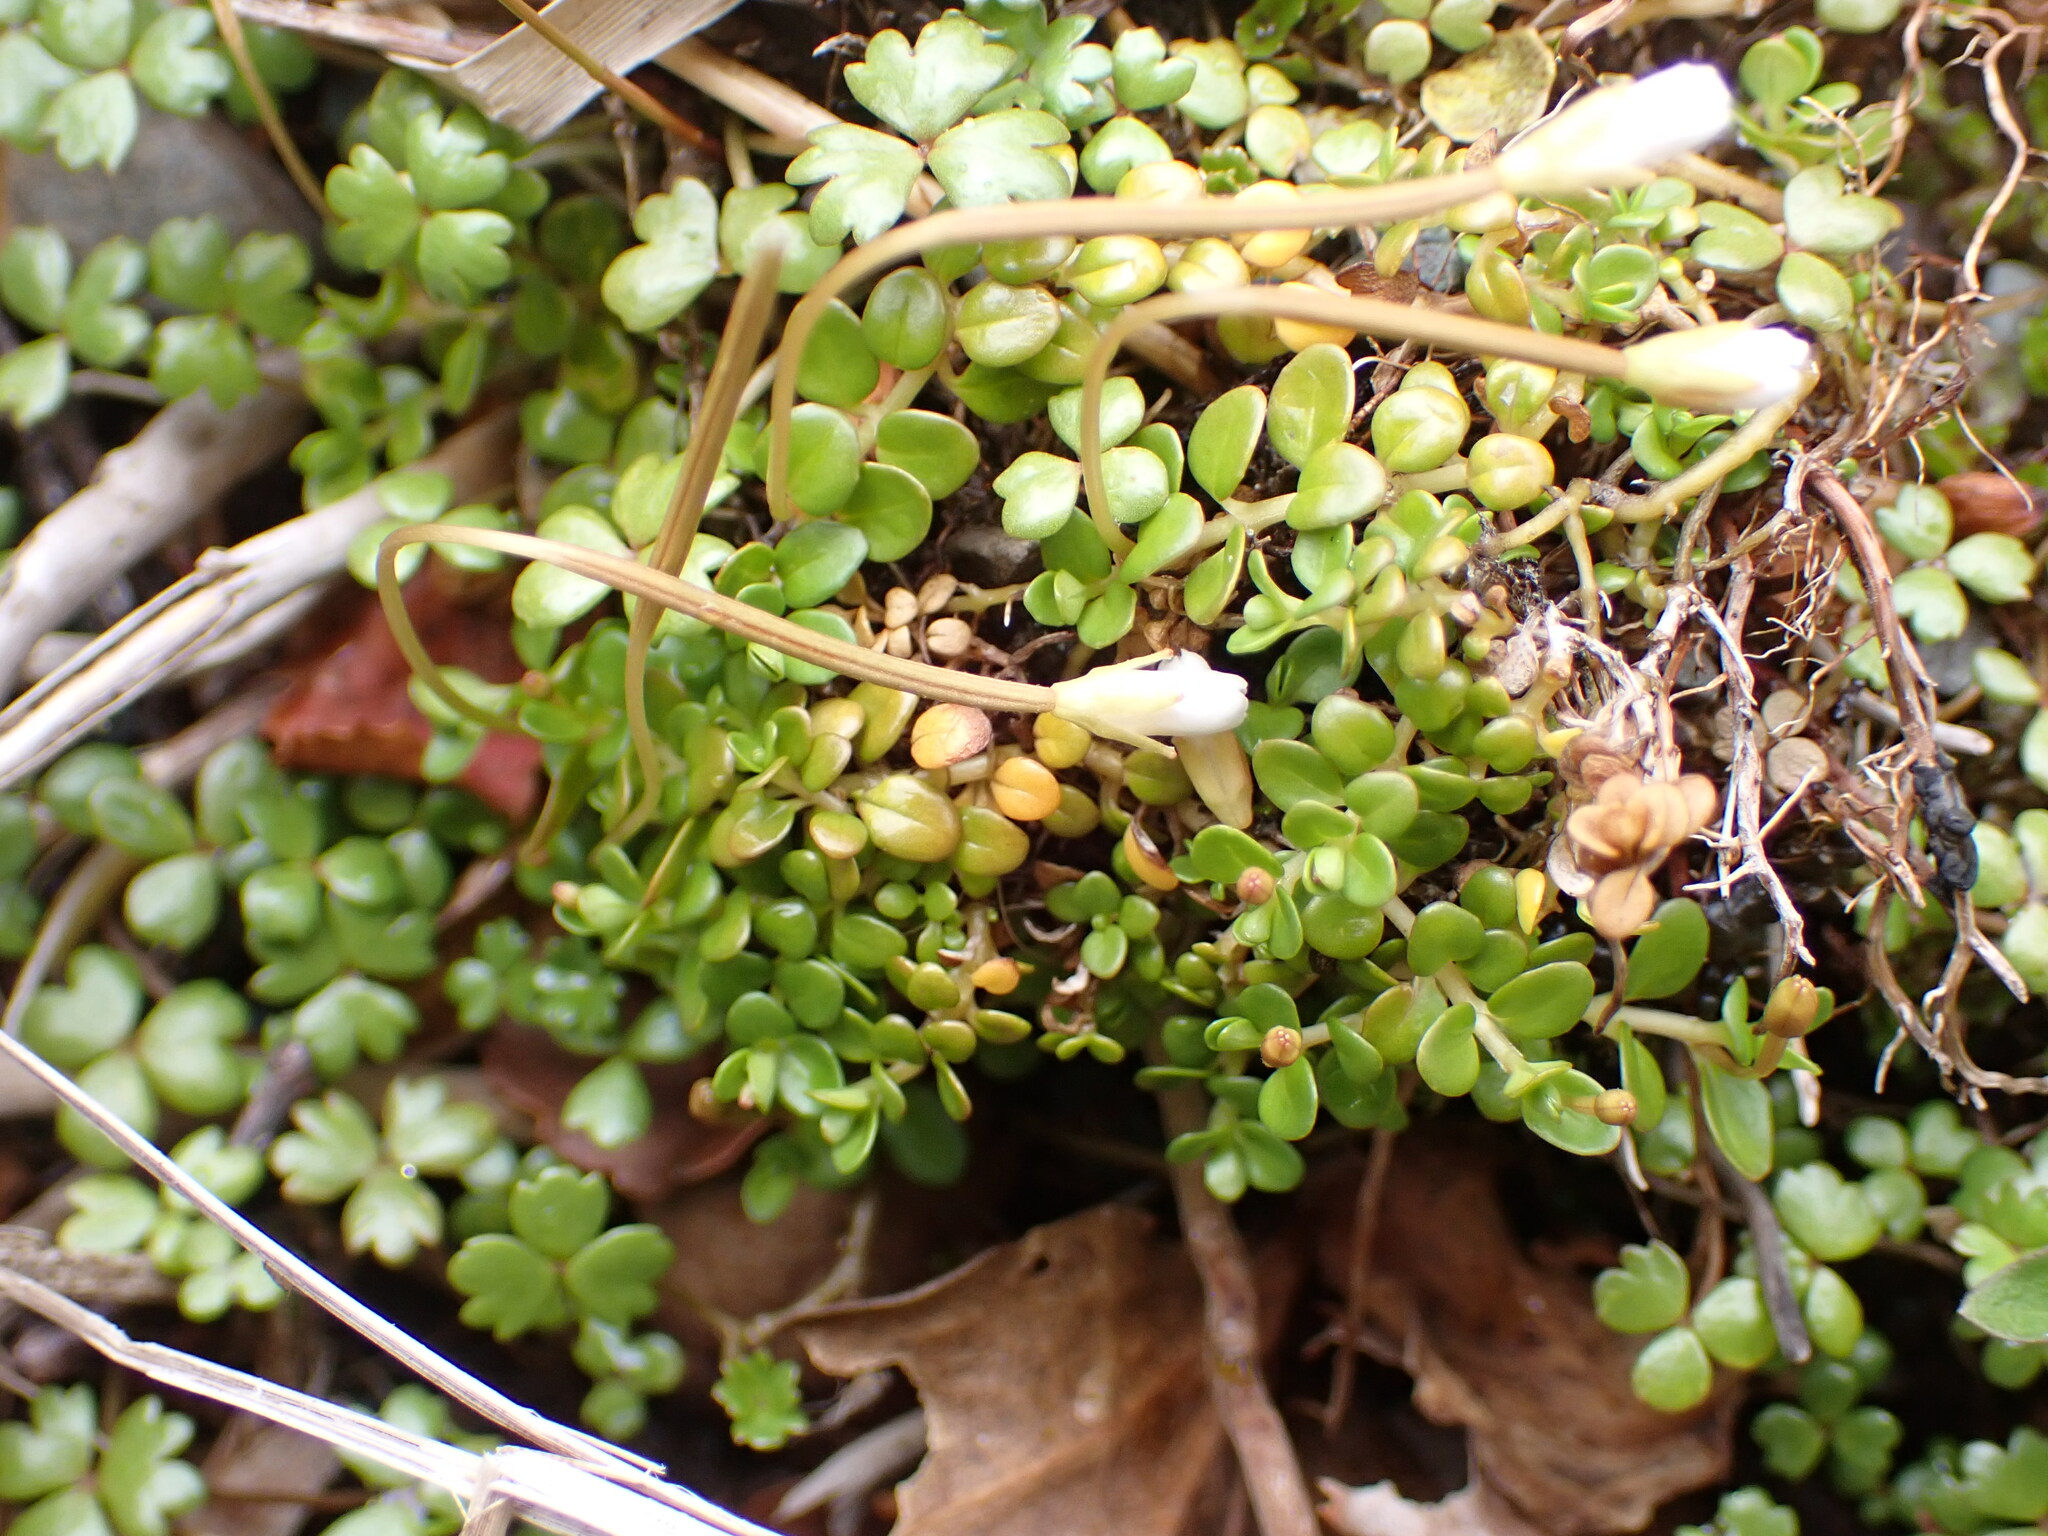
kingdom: Plantae
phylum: Tracheophyta
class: Magnoliopsida
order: Myrtales
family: Onagraceae
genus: Epilobium
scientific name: Epilobium brunnescens
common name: New zealand willowherb
